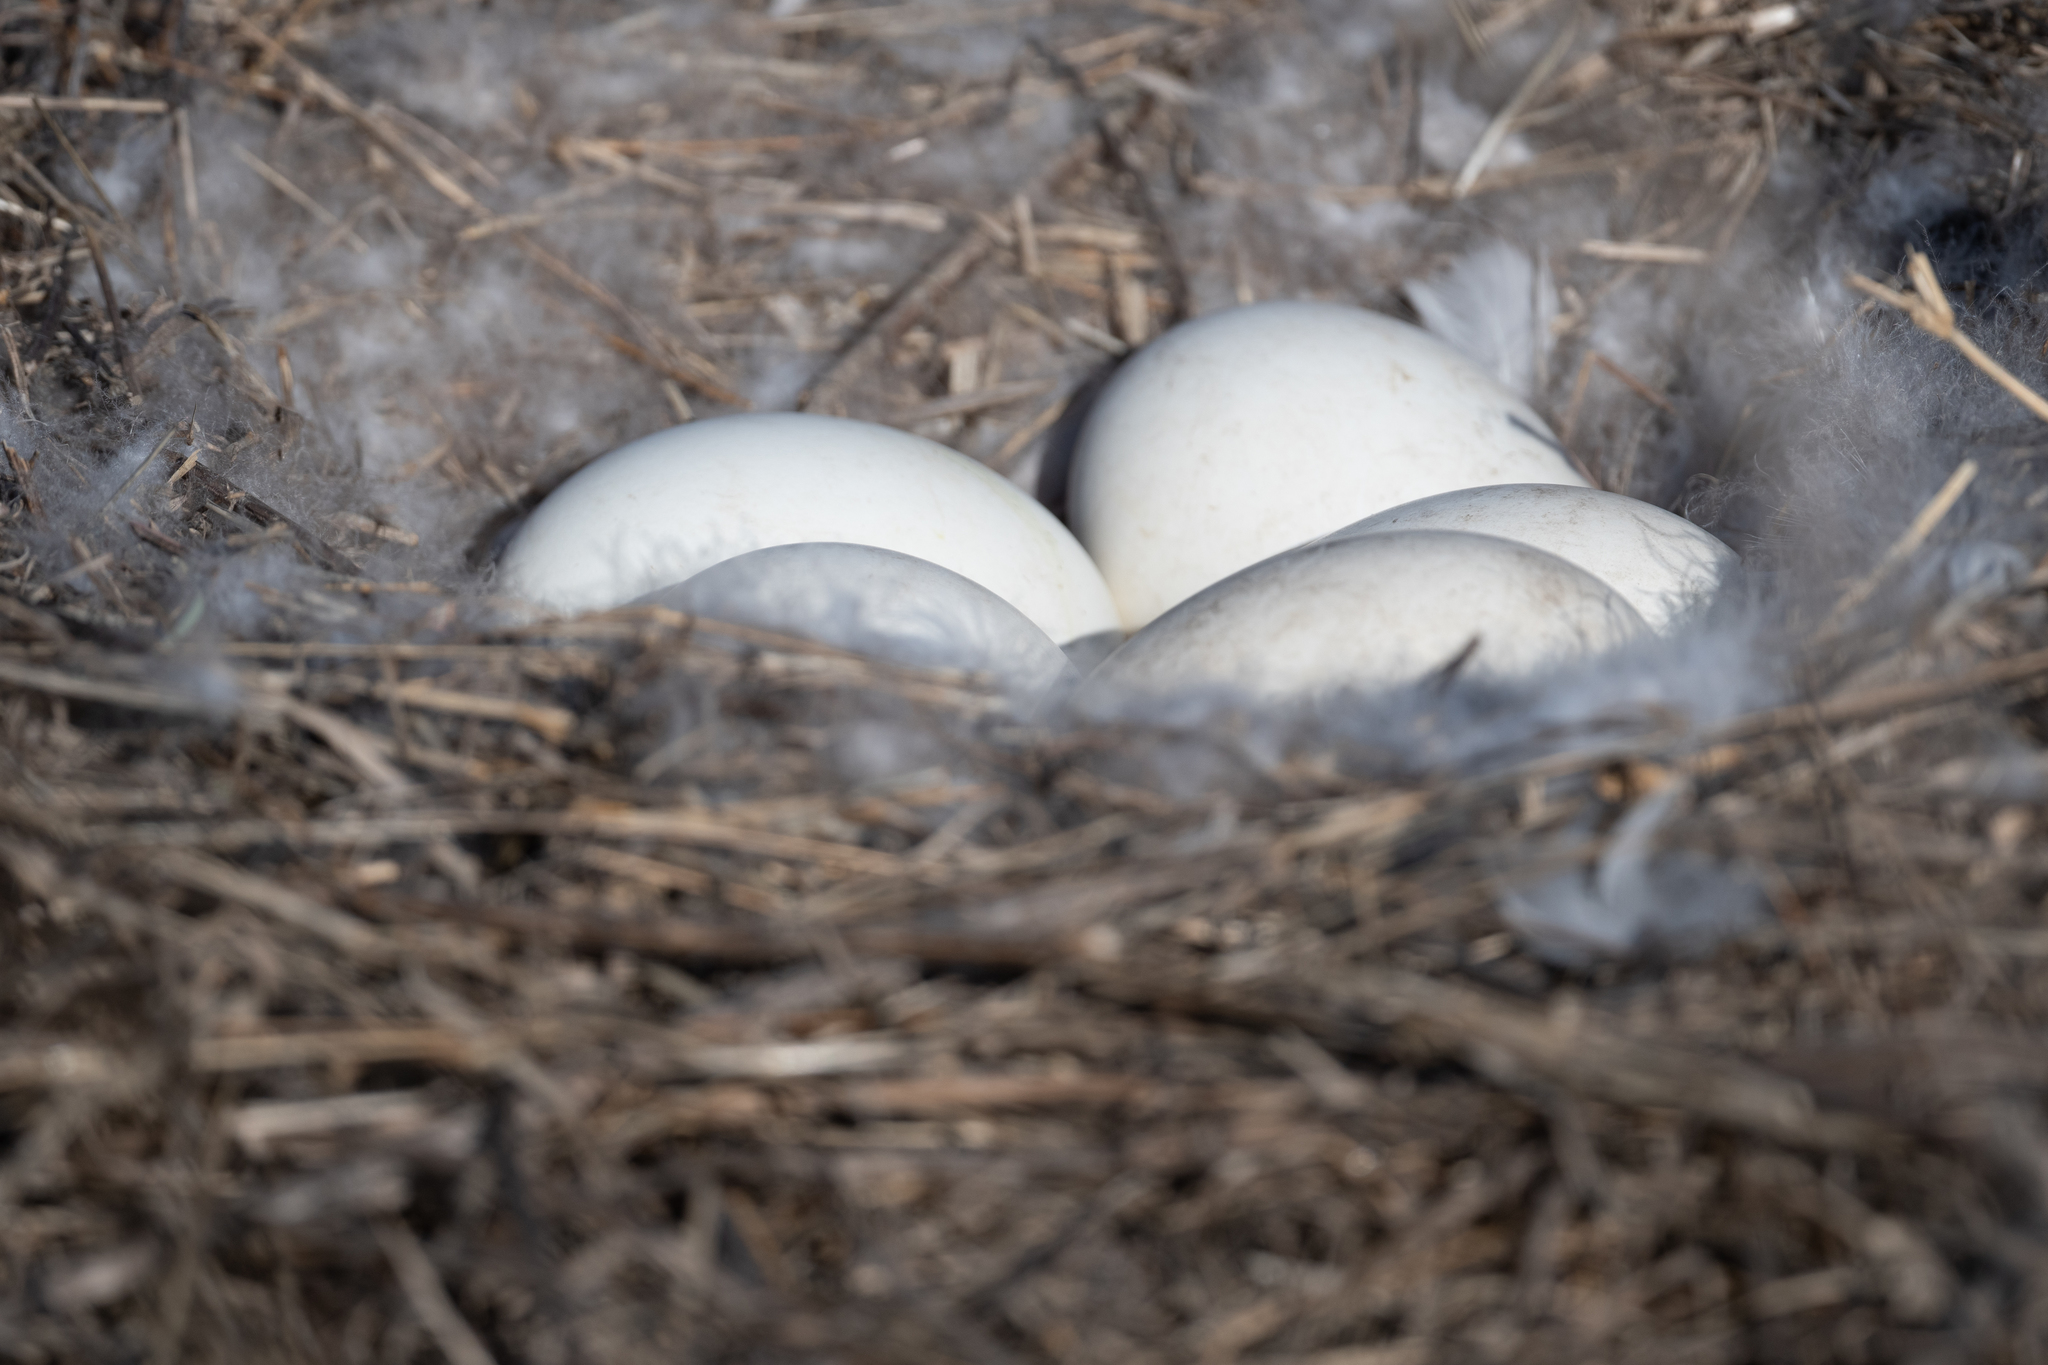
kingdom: Animalia
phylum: Chordata
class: Aves
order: Anseriformes
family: Anatidae
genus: Branta
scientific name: Branta canadensis
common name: Canada goose
